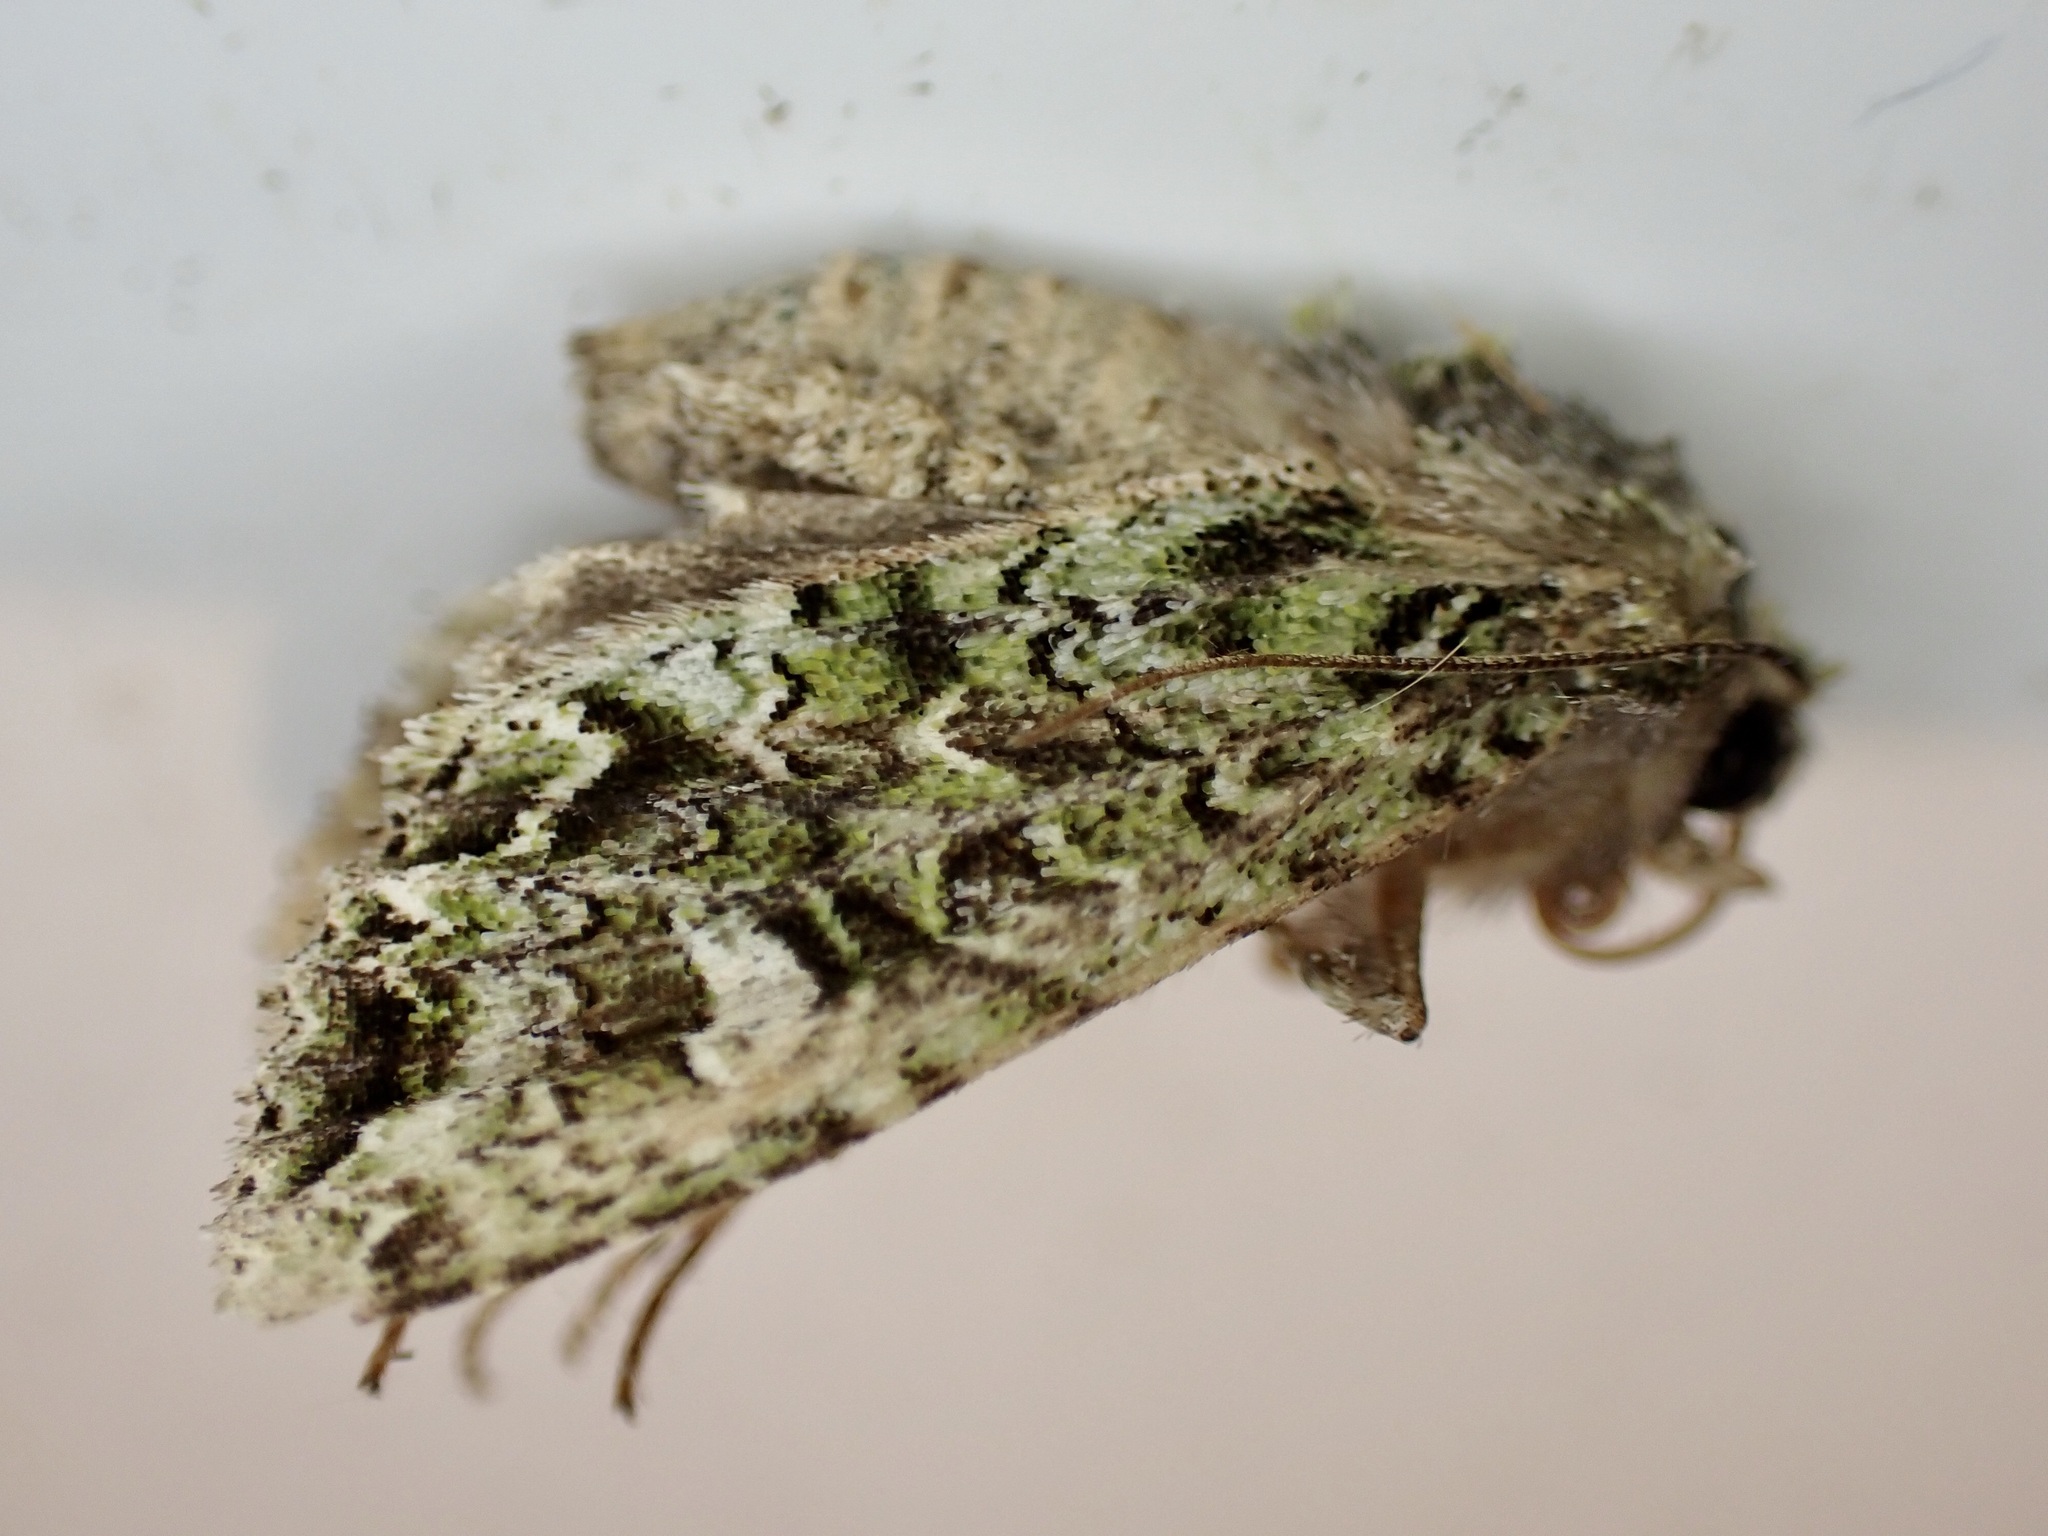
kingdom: Animalia
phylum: Arthropoda
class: Insecta
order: Lepidoptera
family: Noctuidae
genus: Ichneutica
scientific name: Ichneutica
